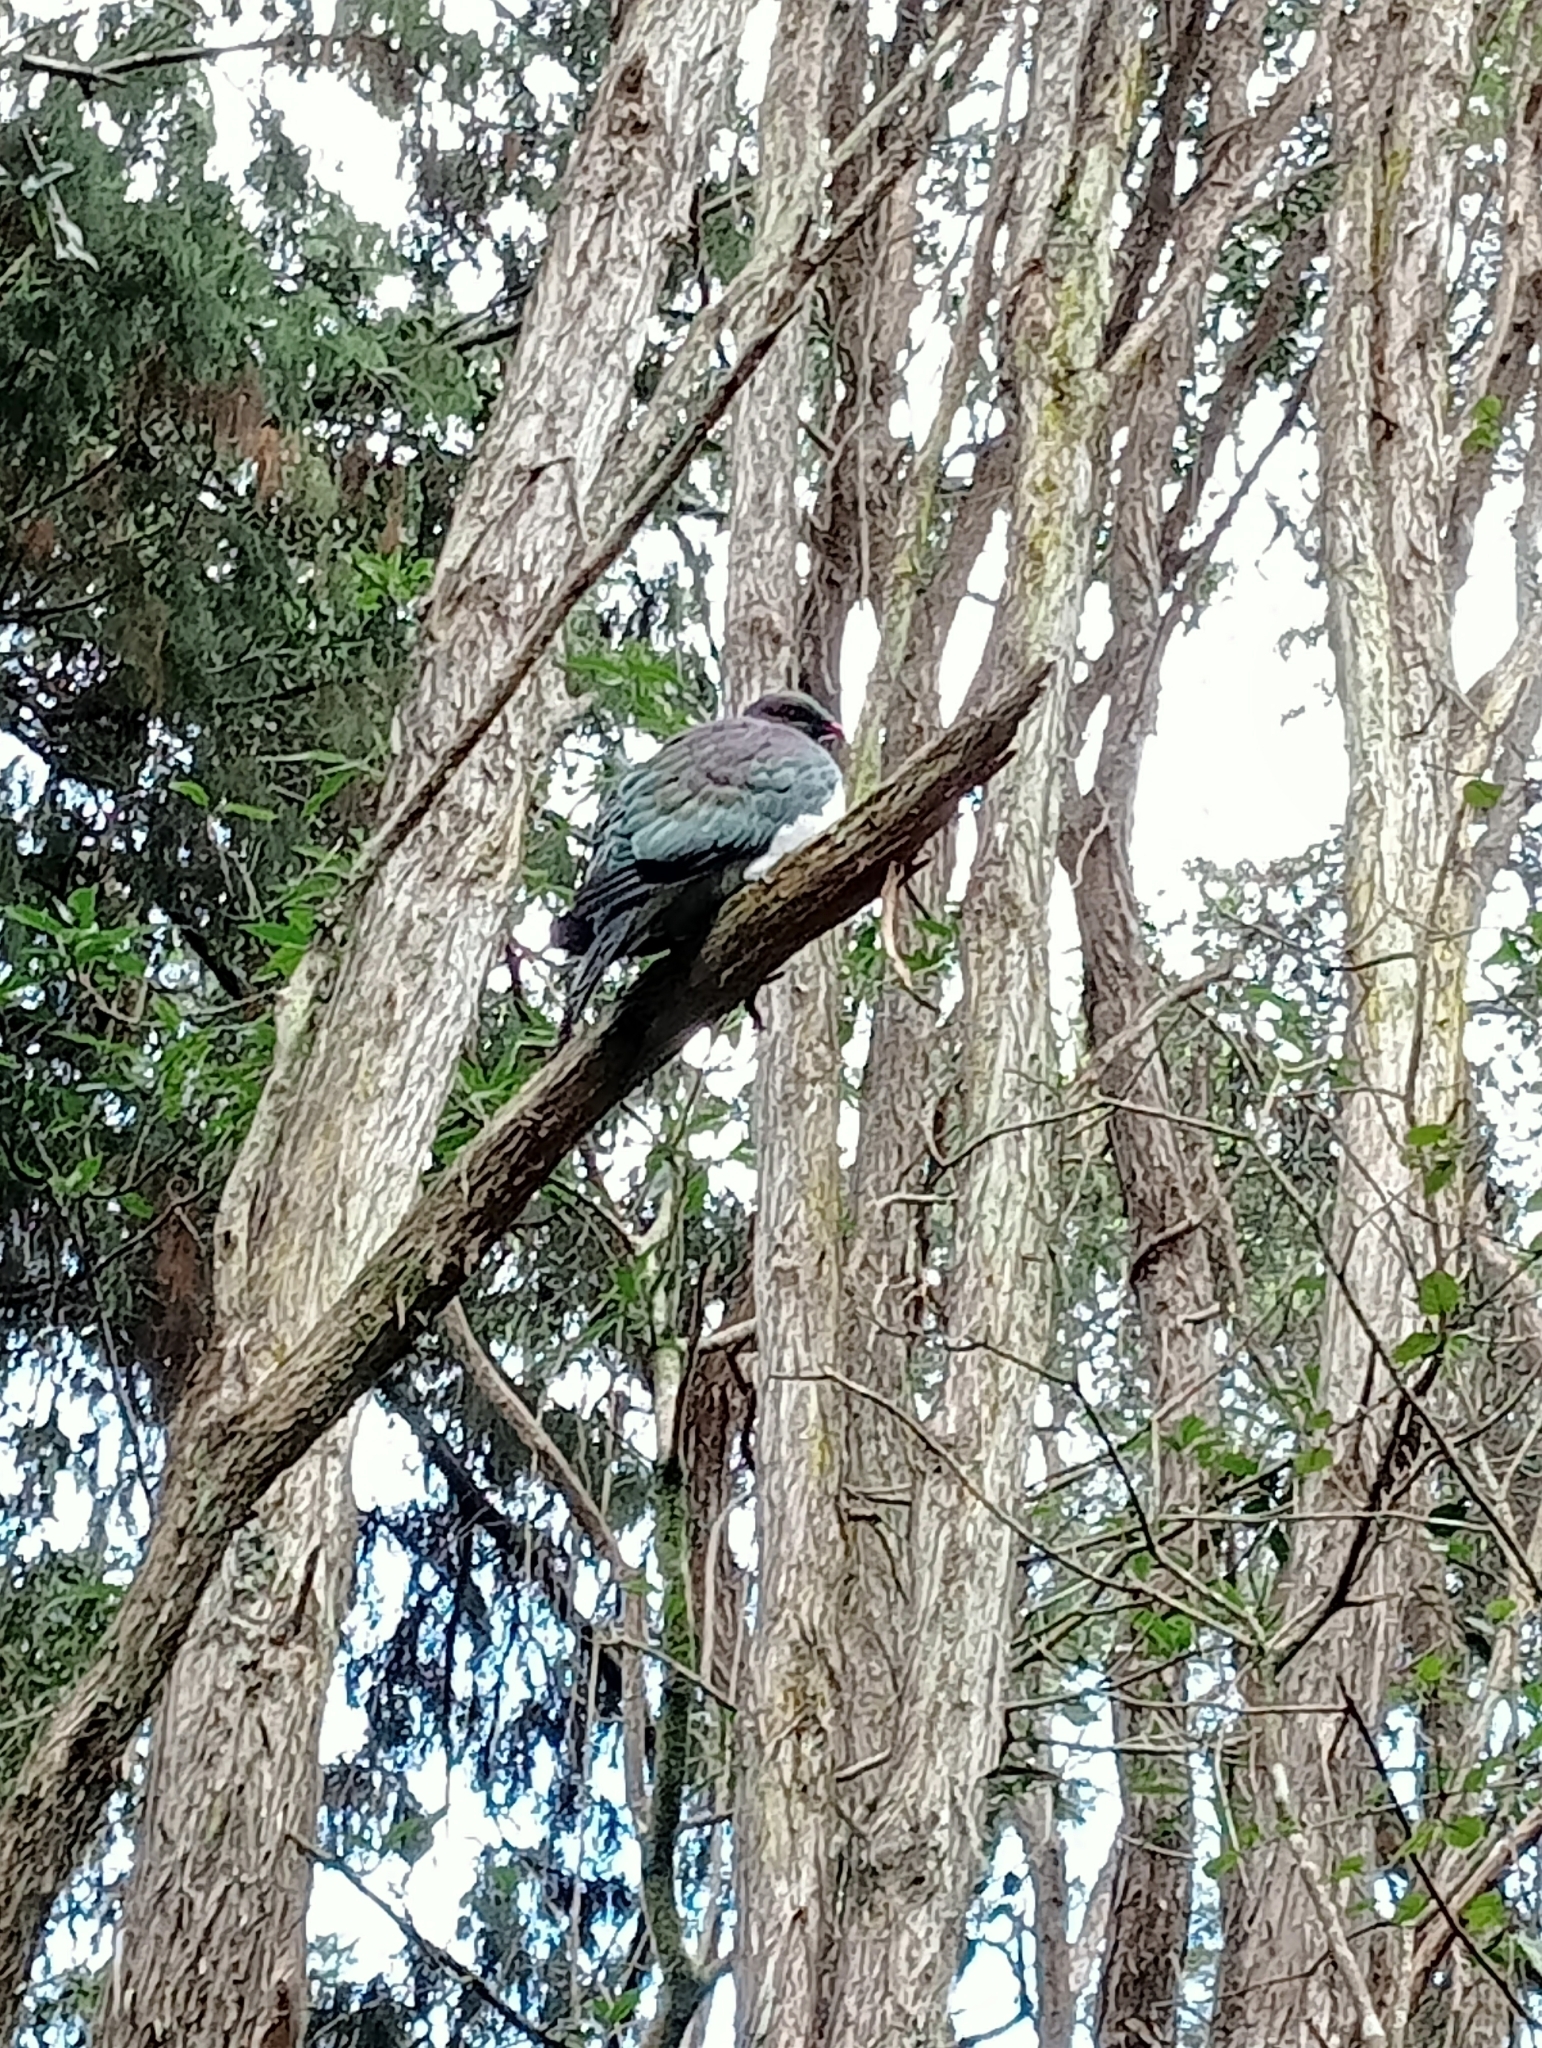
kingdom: Animalia
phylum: Chordata
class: Aves
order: Columbiformes
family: Columbidae
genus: Hemiphaga
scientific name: Hemiphaga novaeseelandiae
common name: New zealand pigeon
